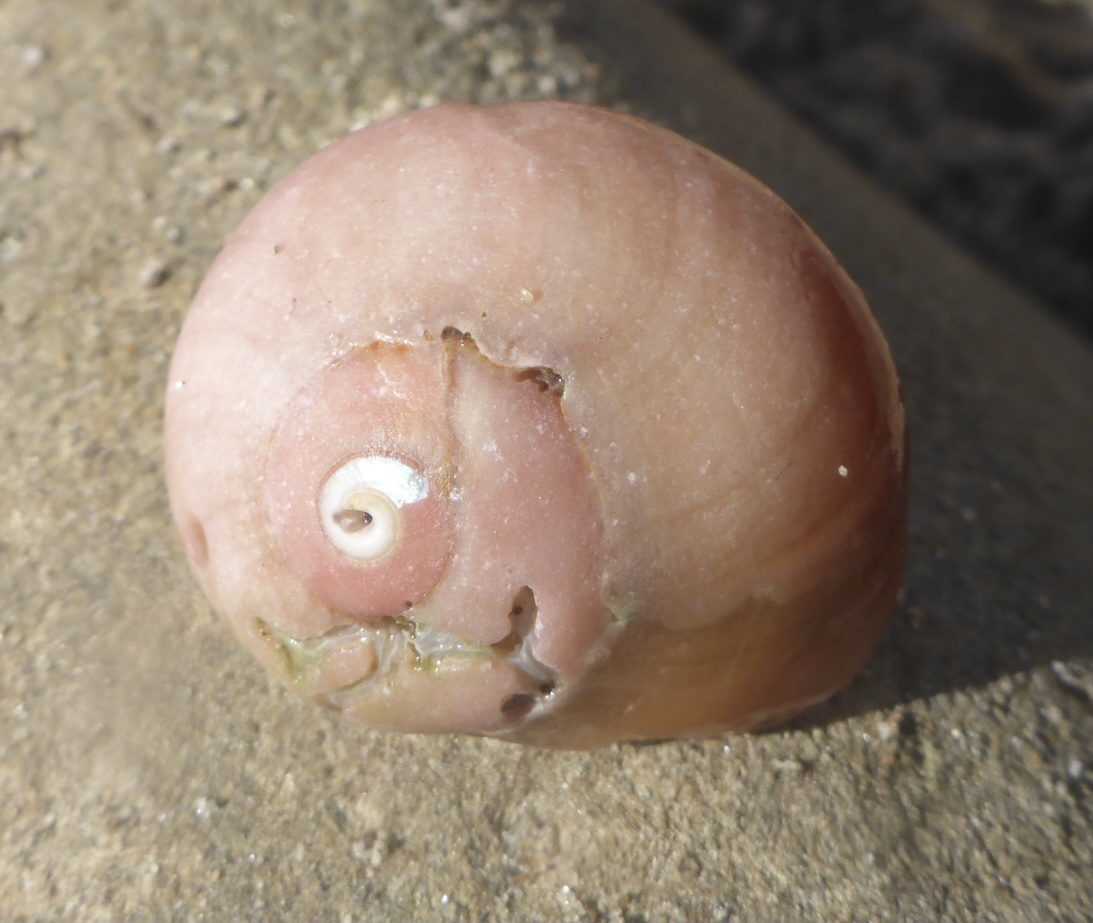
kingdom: Animalia
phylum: Mollusca
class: Gastropoda
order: Trochida
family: Tegulidae
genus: Norrisia
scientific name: Norrisia norrisii
